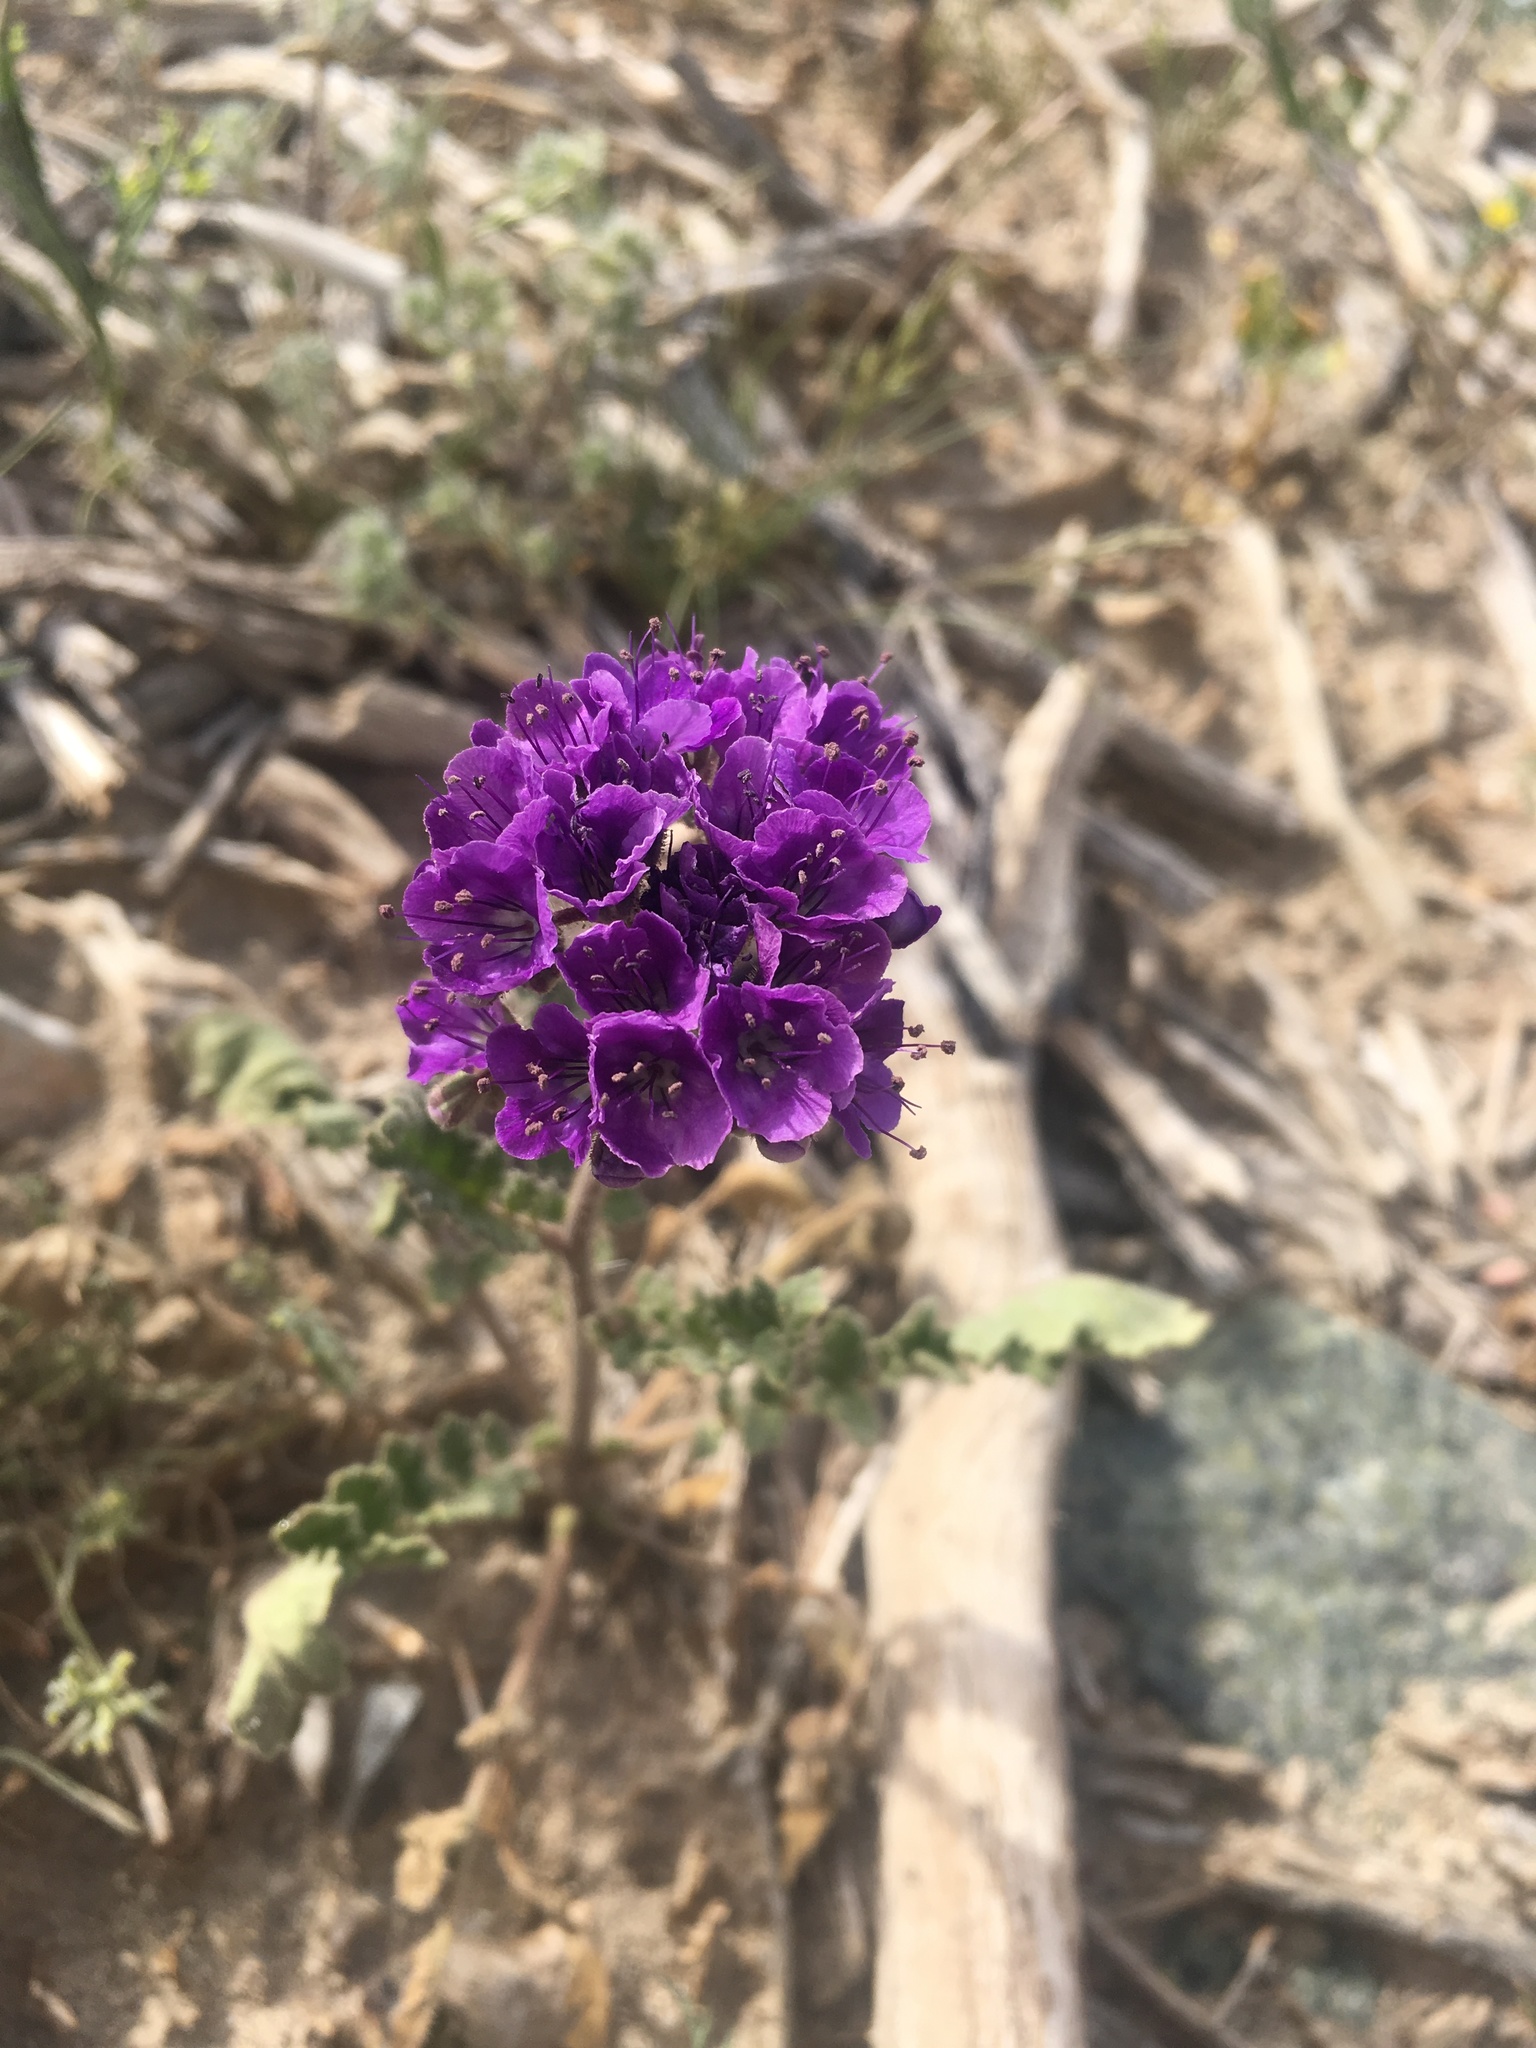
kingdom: Plantae
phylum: Tracheophyta
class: Magnoliopsida
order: Boraginales
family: Hydrophyllaceae
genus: Phacelia
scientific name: Phacelia crenulata
